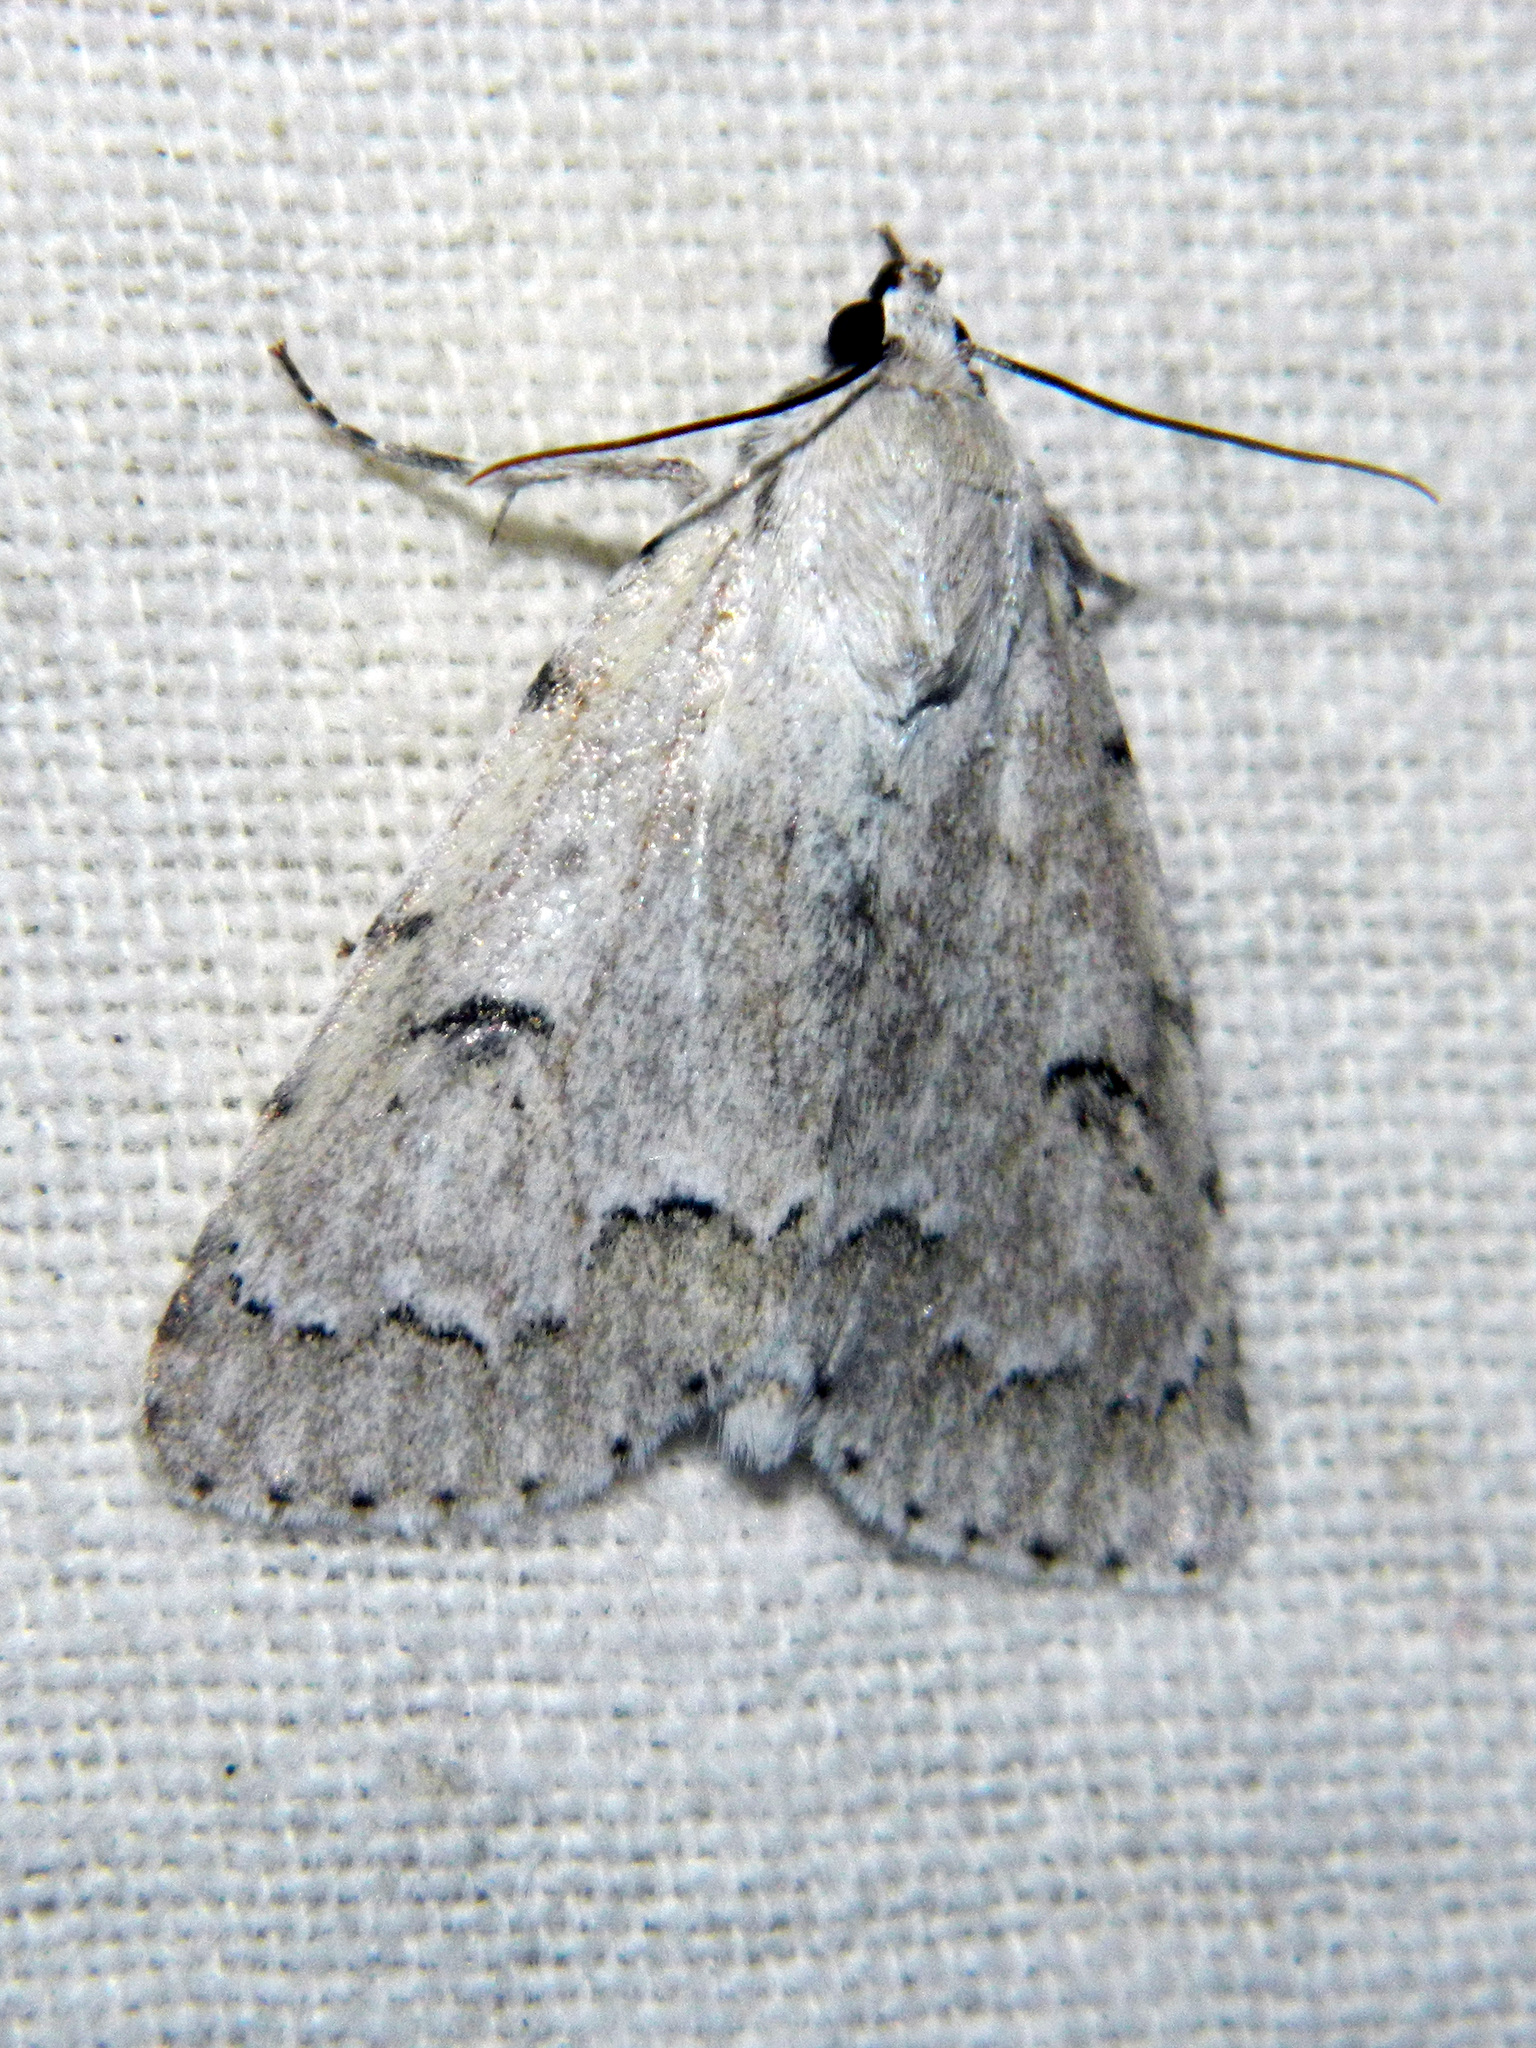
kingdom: Animalia
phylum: Arthropoda
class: Insecta
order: Lepidoptera
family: Noctuidae
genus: Acronicta
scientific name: Acronicta innotata
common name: Unmarked dagger
